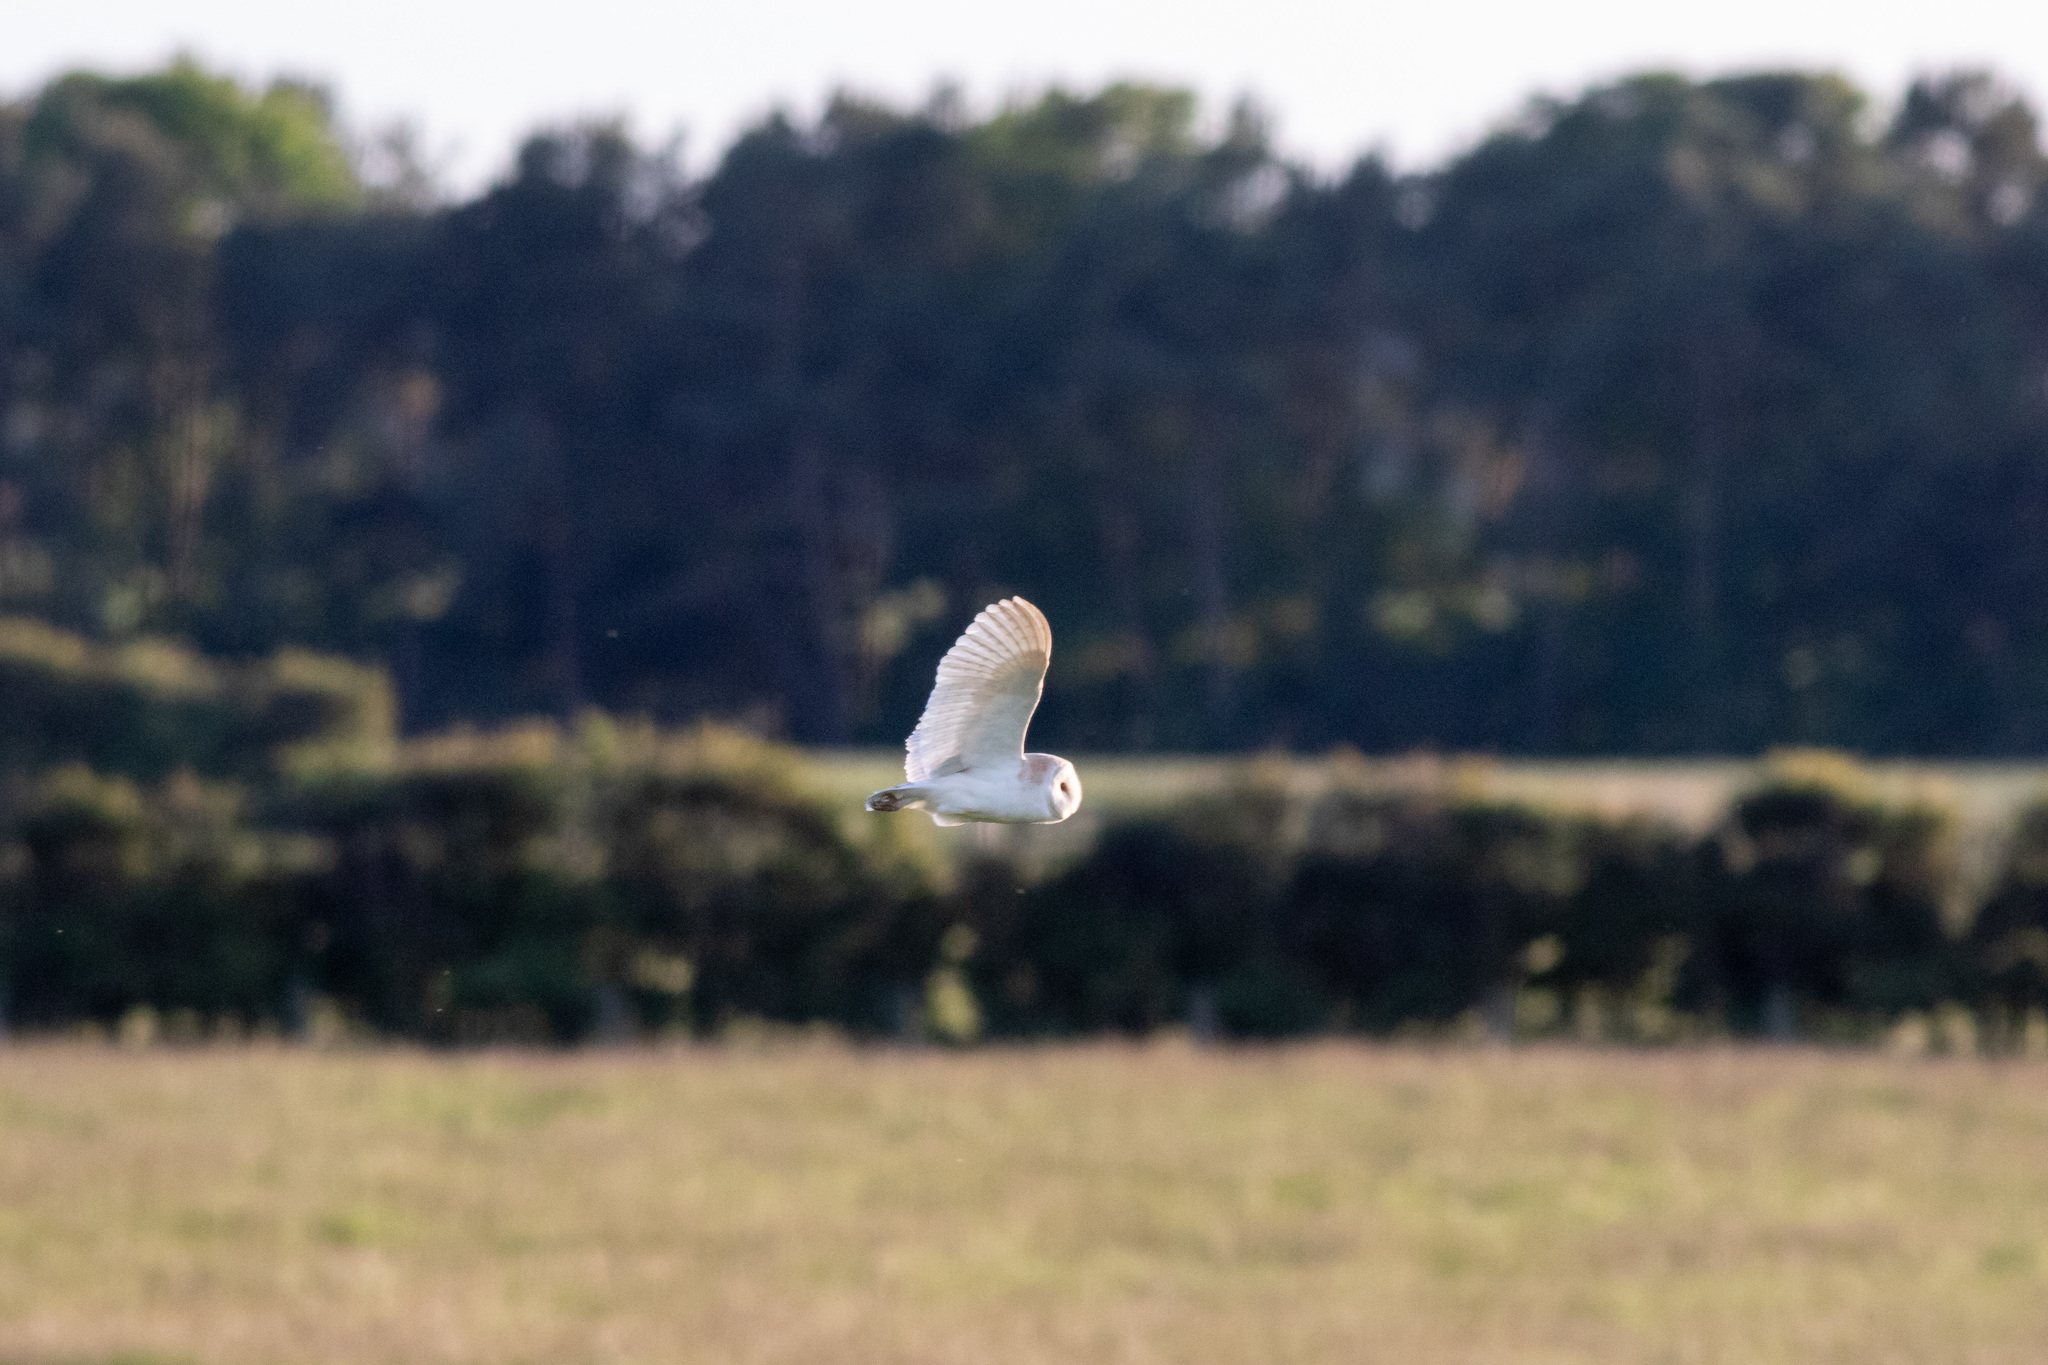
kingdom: Animalia
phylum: Chordata
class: Aves
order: Strigiformes
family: Tytonidae
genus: Tyto
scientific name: Tyto alba
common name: Barn owl
